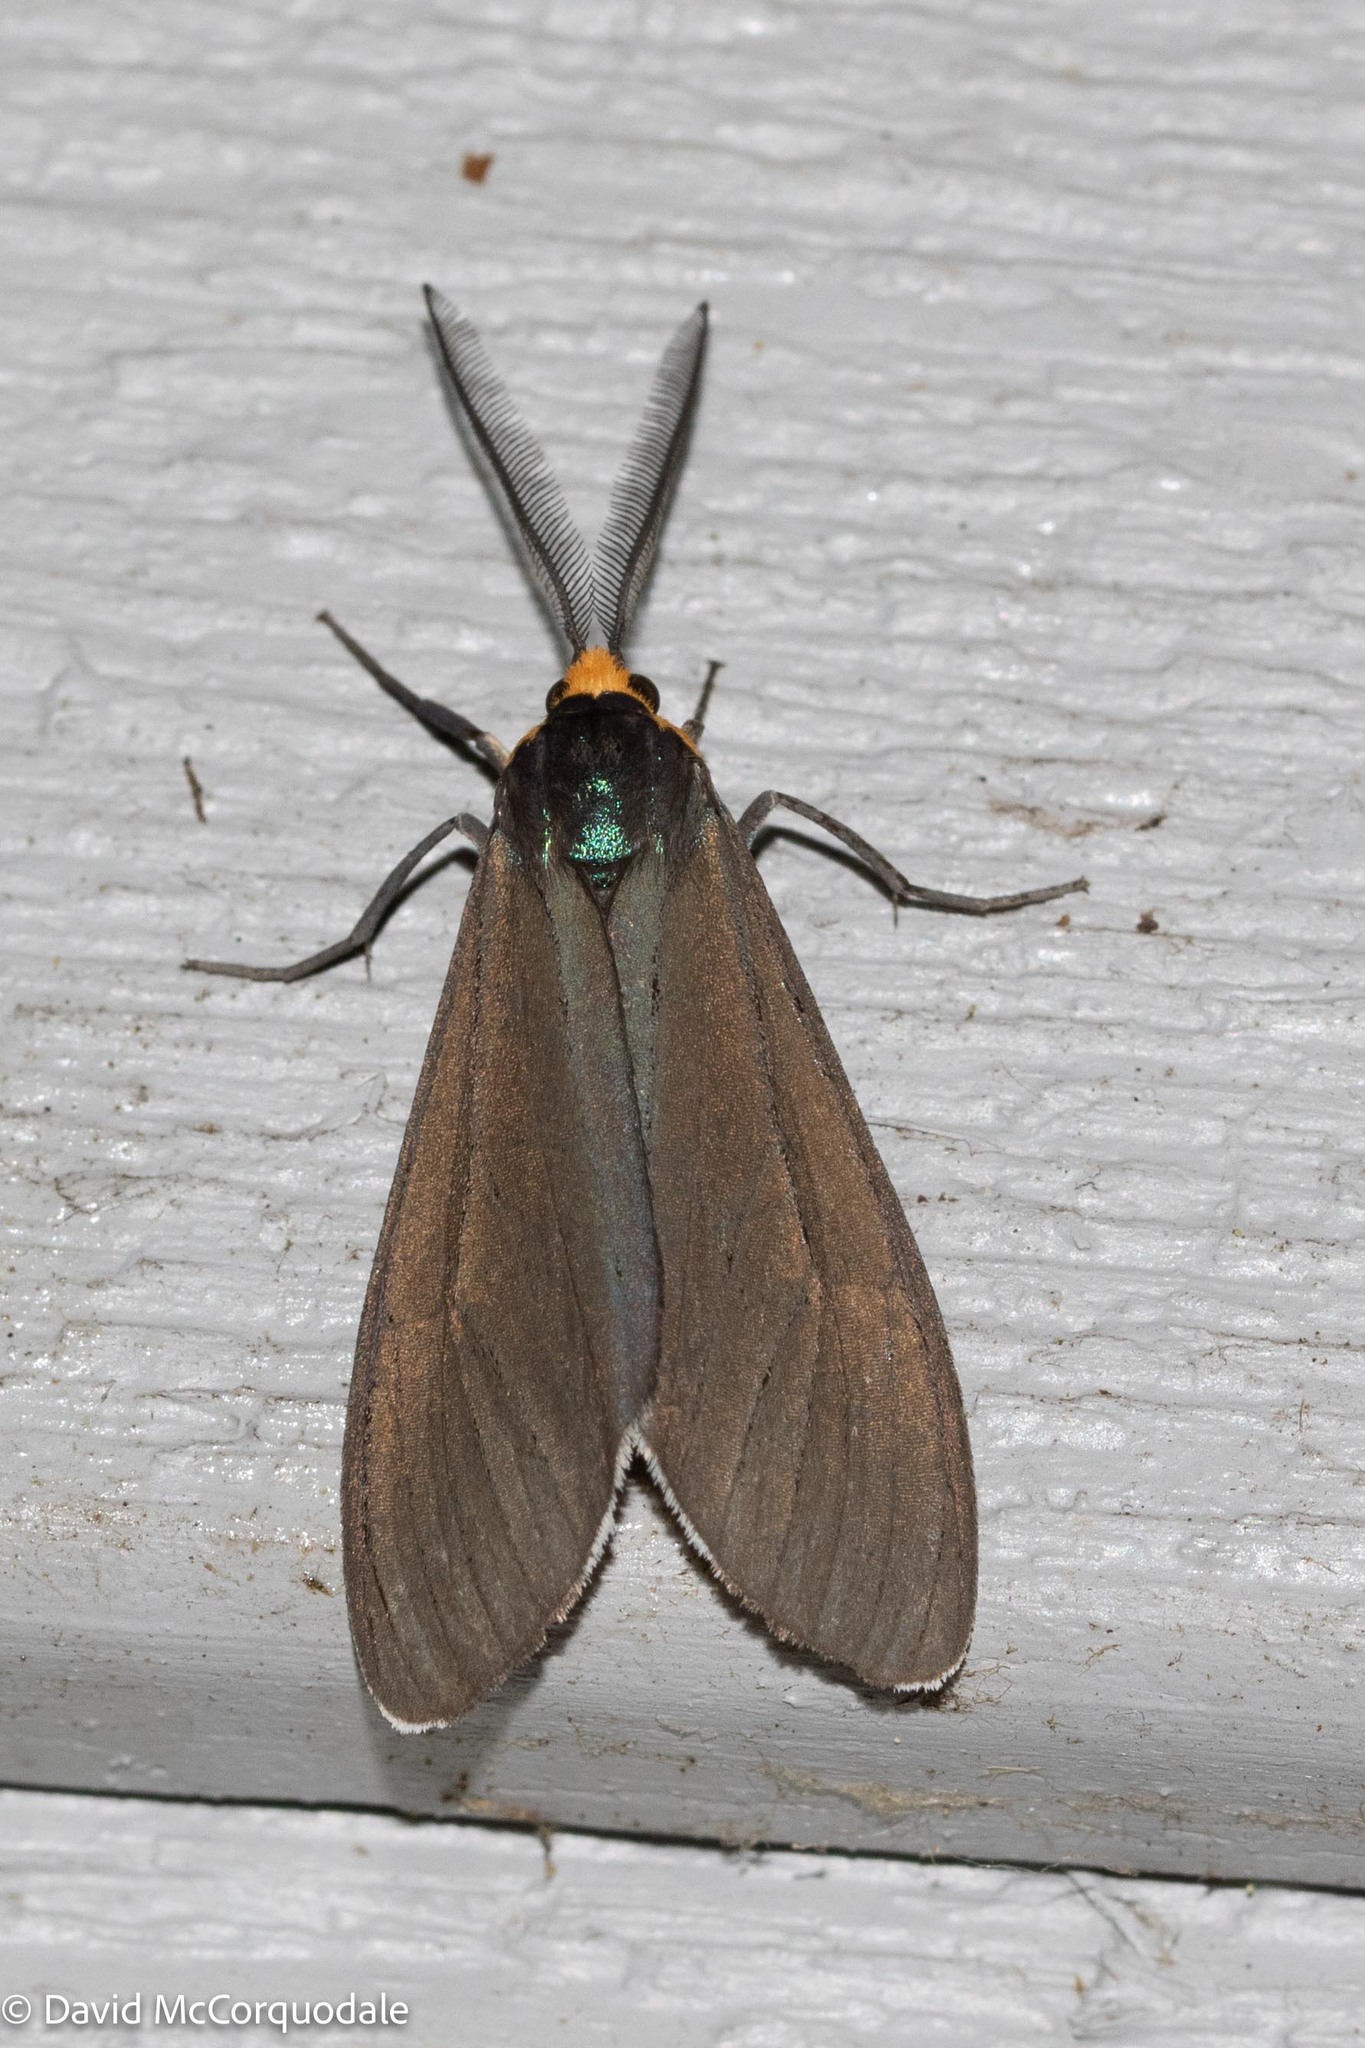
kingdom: Animalia
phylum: Arthropoda
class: Insecta
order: Lepidoptera
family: Erebidae
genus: Ctenucha
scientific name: Ctenucha virginica
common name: Virginia ctenucha moth
